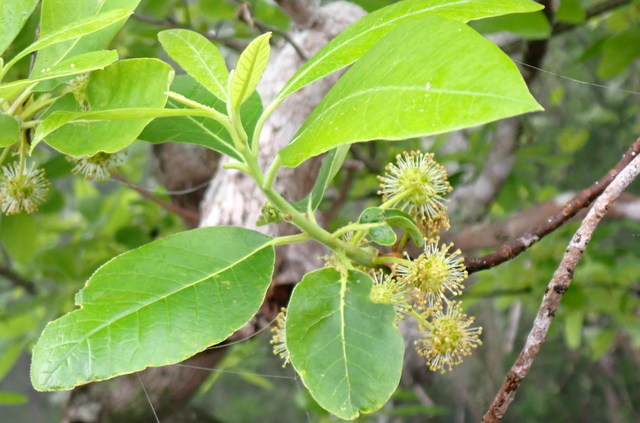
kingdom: Plantae
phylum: Tracheophyta
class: Magnoliopsida
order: Cornales
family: Nyssaceae
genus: Nyssa
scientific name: Nyssa ogeche
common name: Ogeechee tupelo
